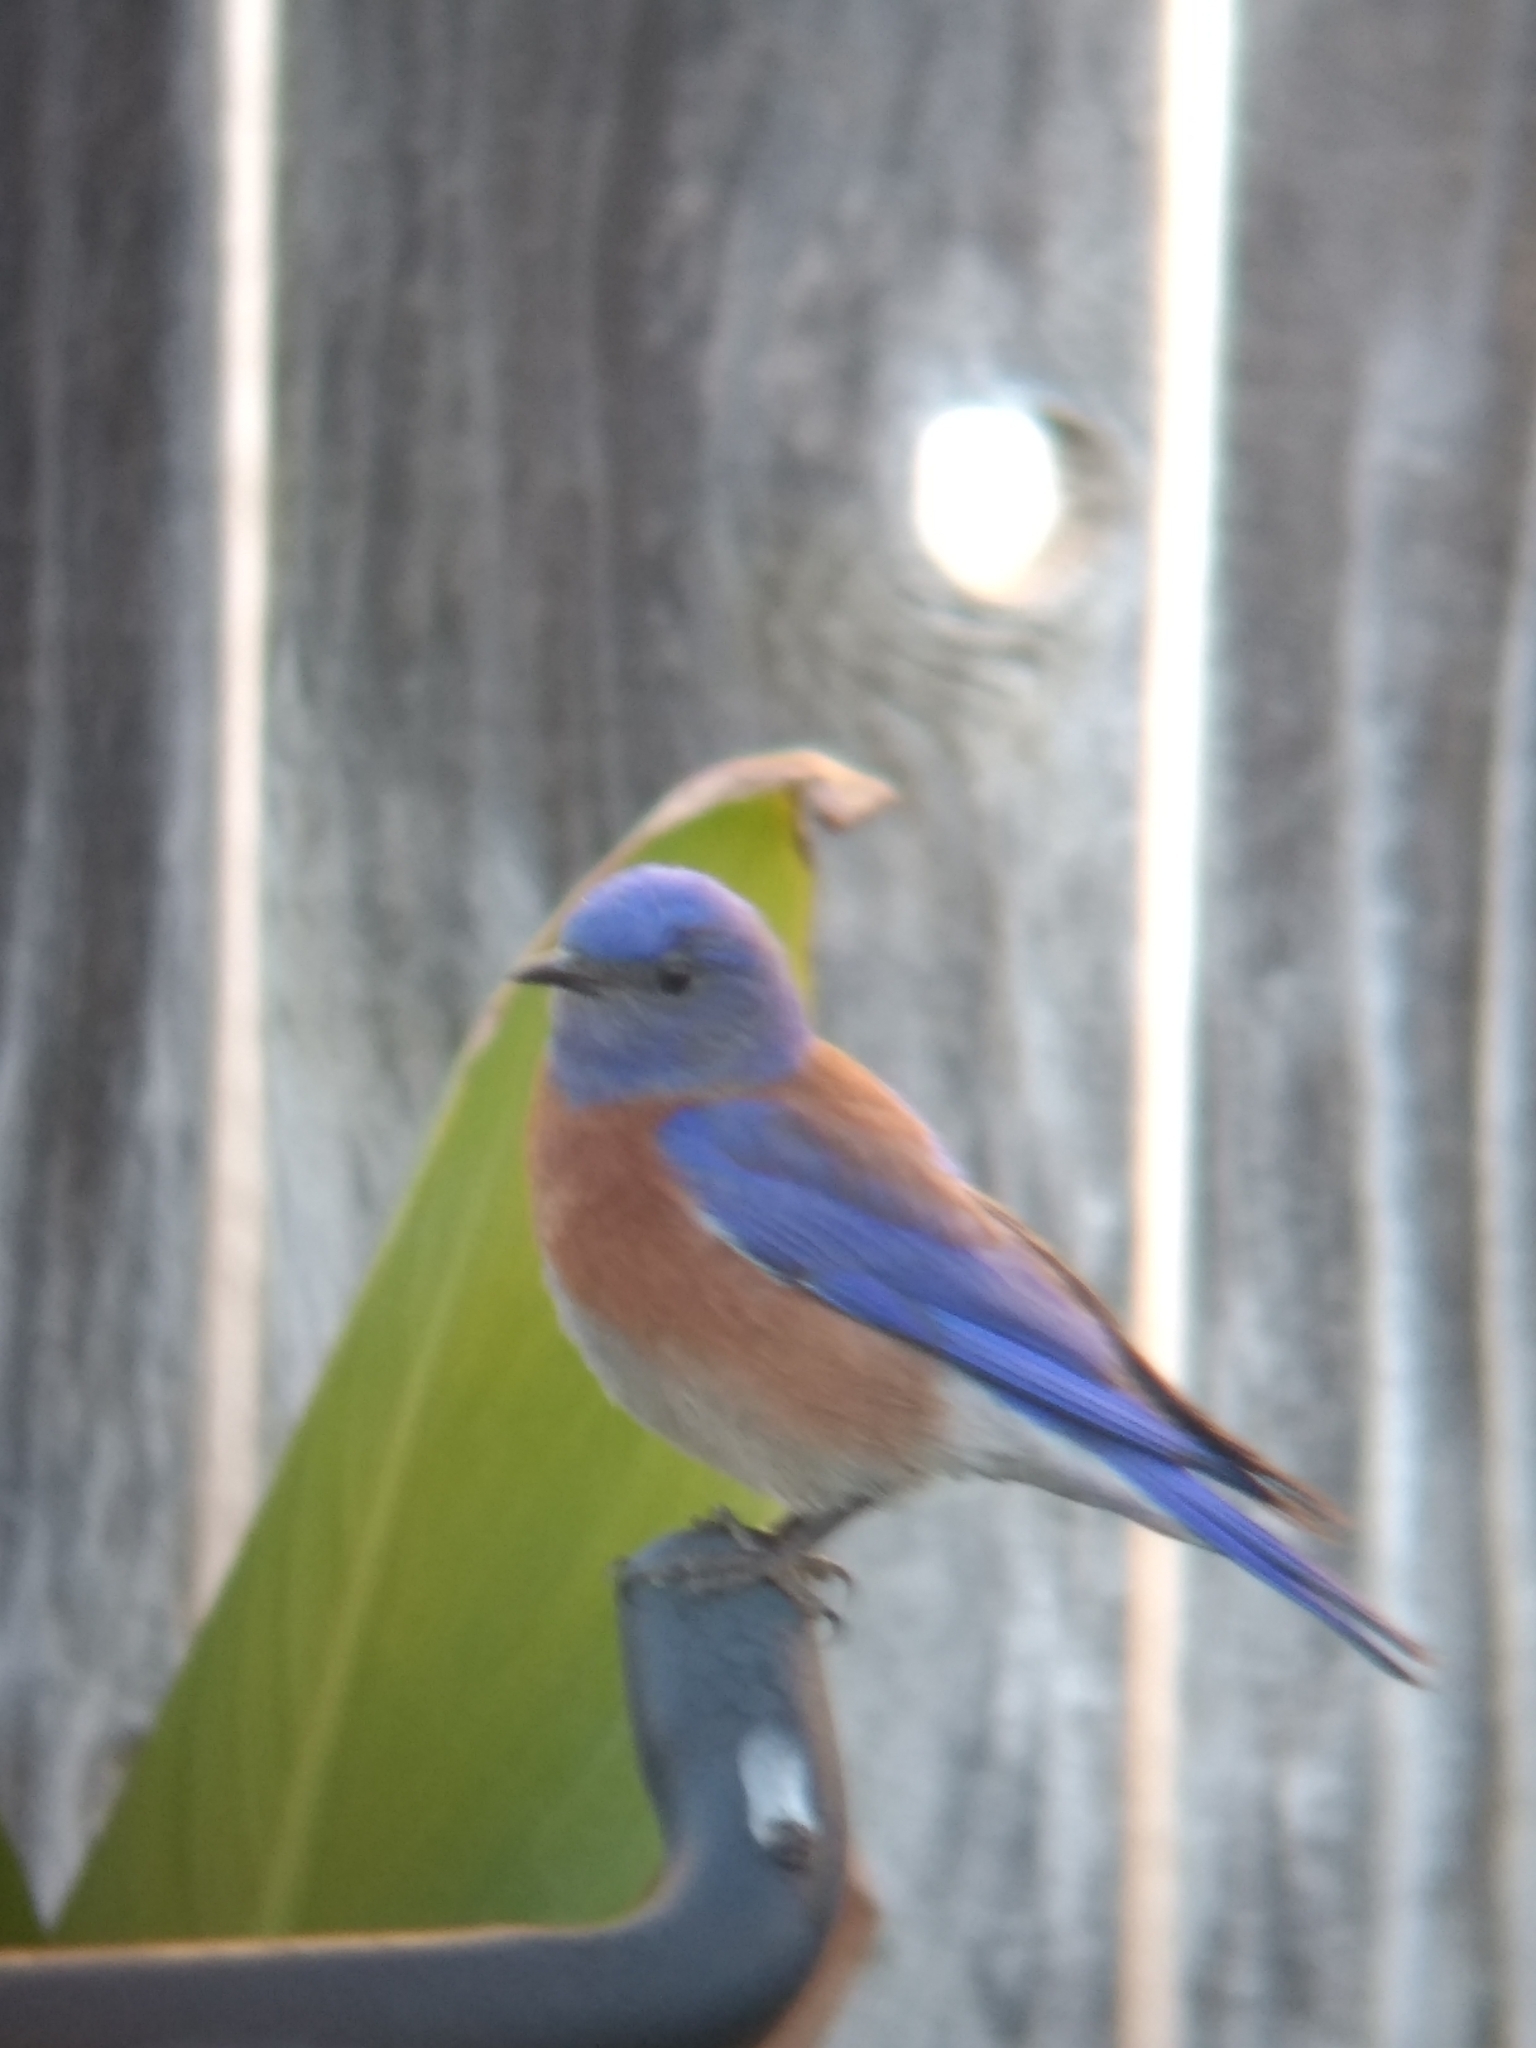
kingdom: Animalia
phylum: Chordata
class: Aves
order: Passeriformes
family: Turdidae
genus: Sialia
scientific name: Sialia mexicana
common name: Western bluebird
